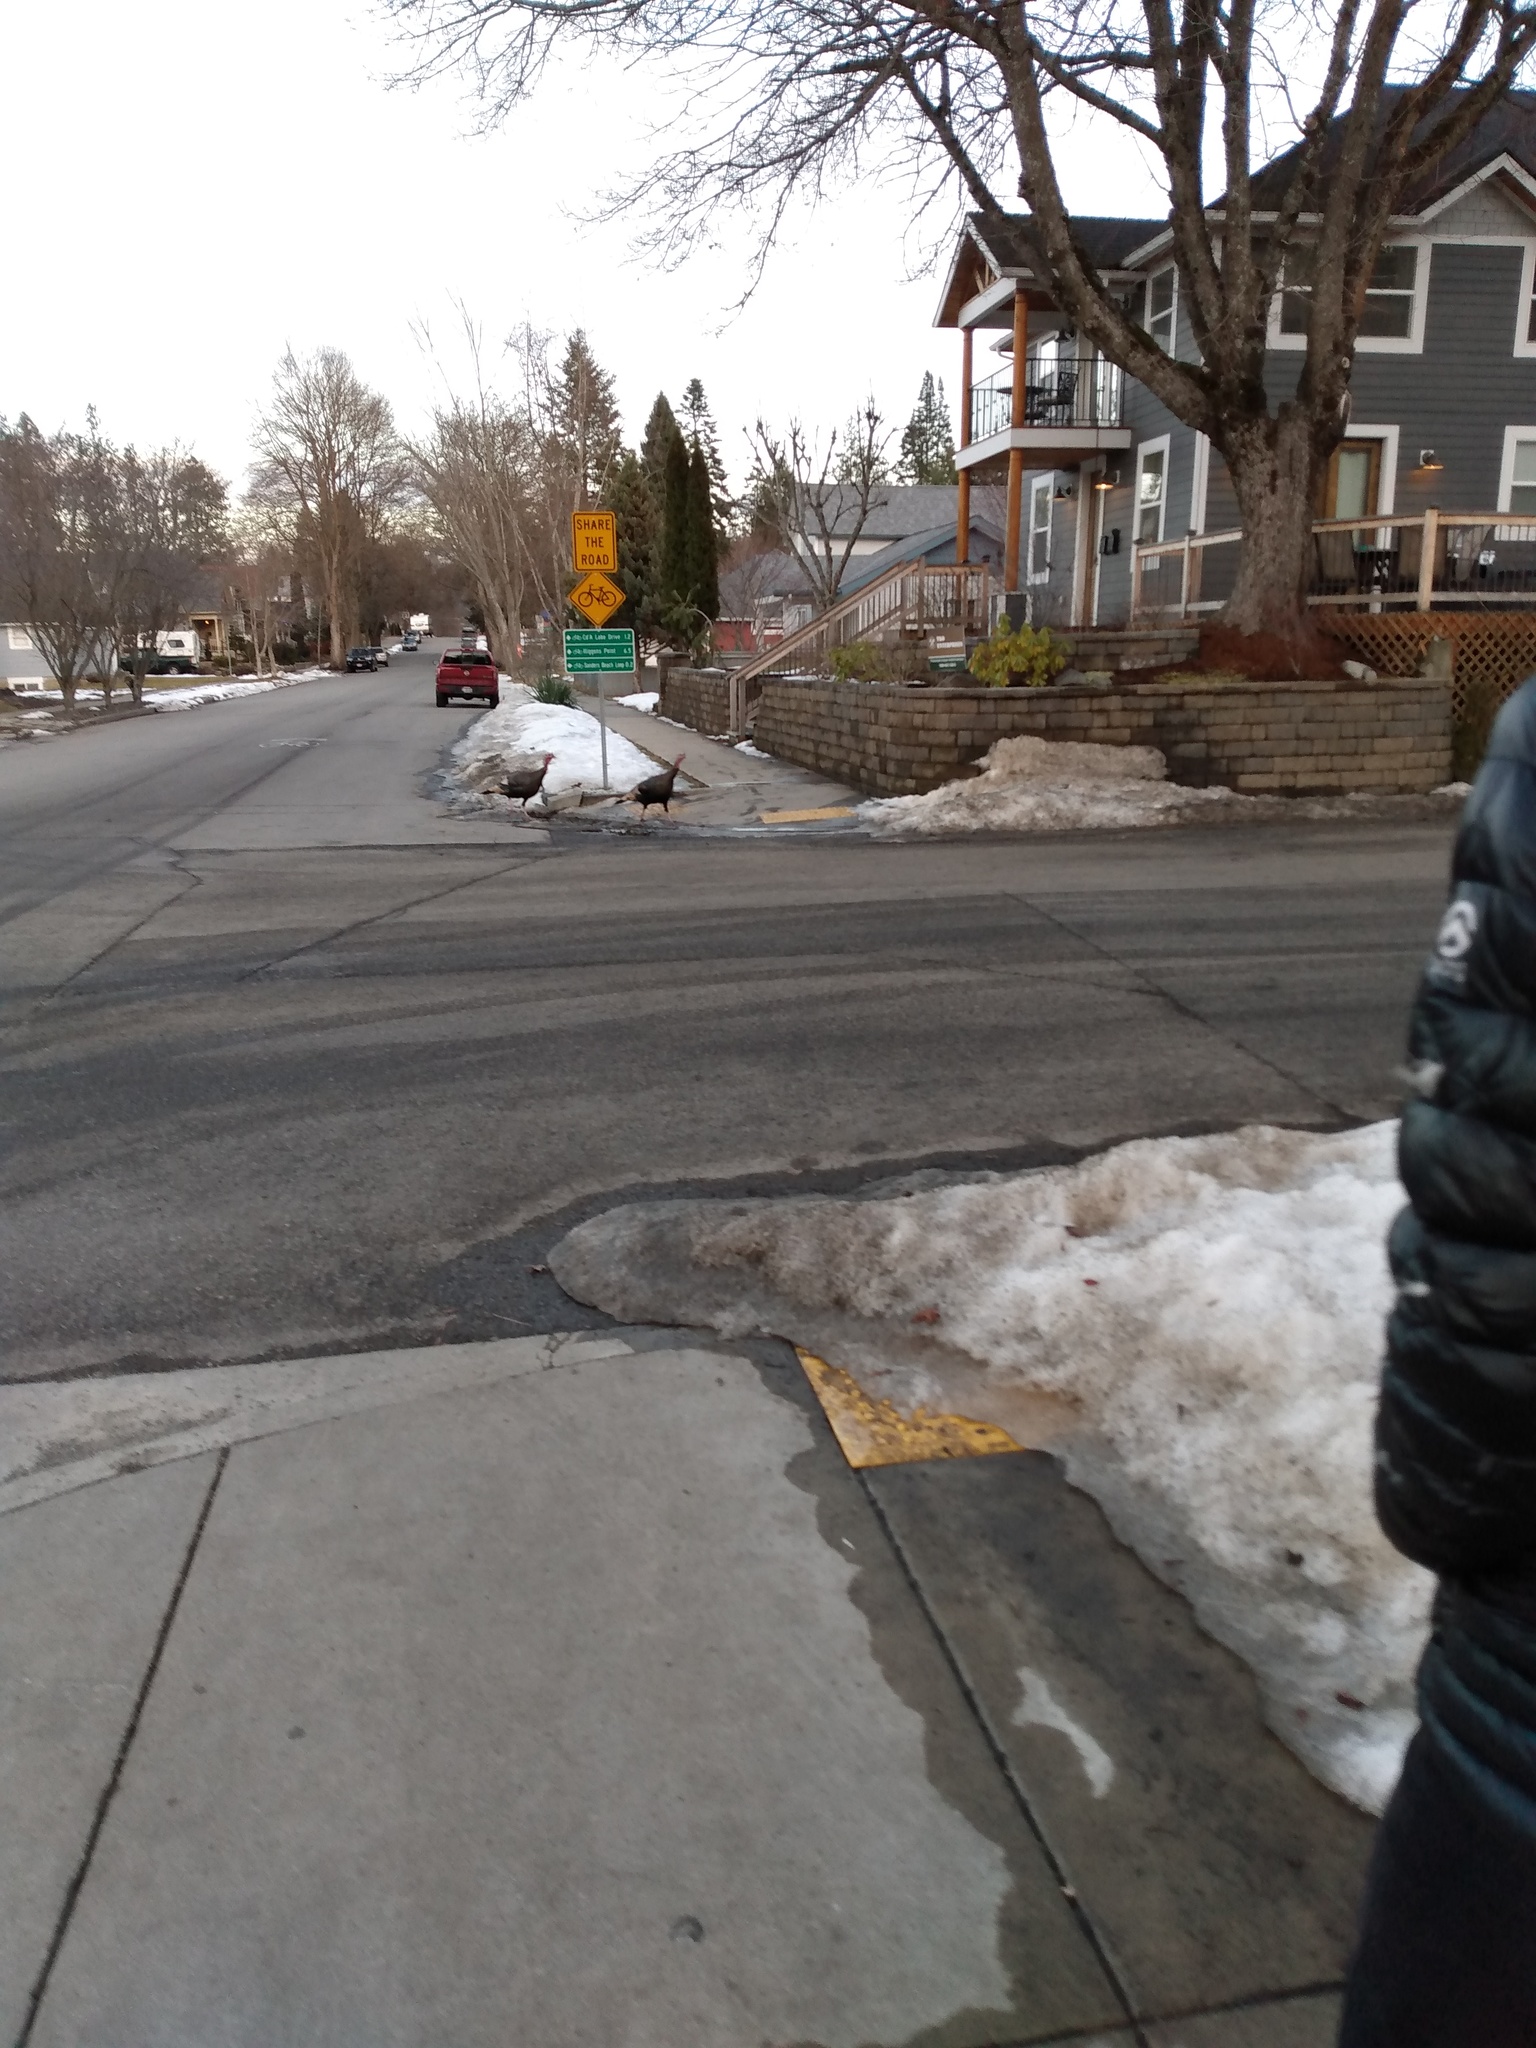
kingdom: Animalia
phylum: Chordata
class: Aves
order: Galliformes
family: Phasianidae
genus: Meleagris
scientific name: Meleagris gallopavo
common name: Wild turkey
